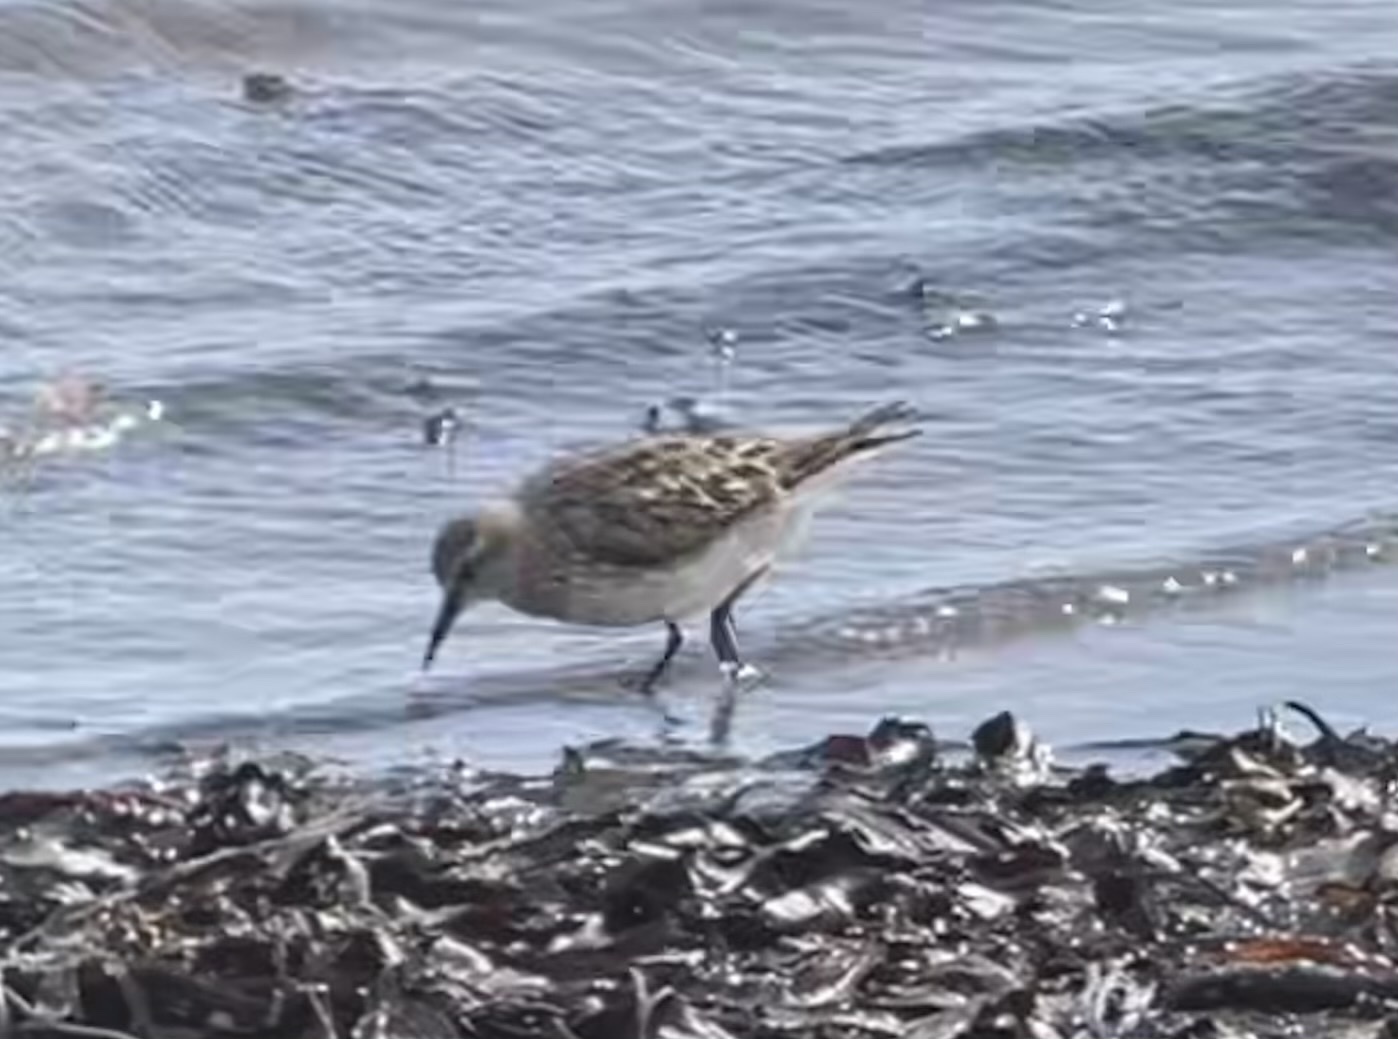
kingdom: Animalia
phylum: Chordata
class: Aves
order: Charadriiformes
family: Scolopacidae
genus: Calidris
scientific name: Calidris fuscicollis
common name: White-rumped sandpiper
